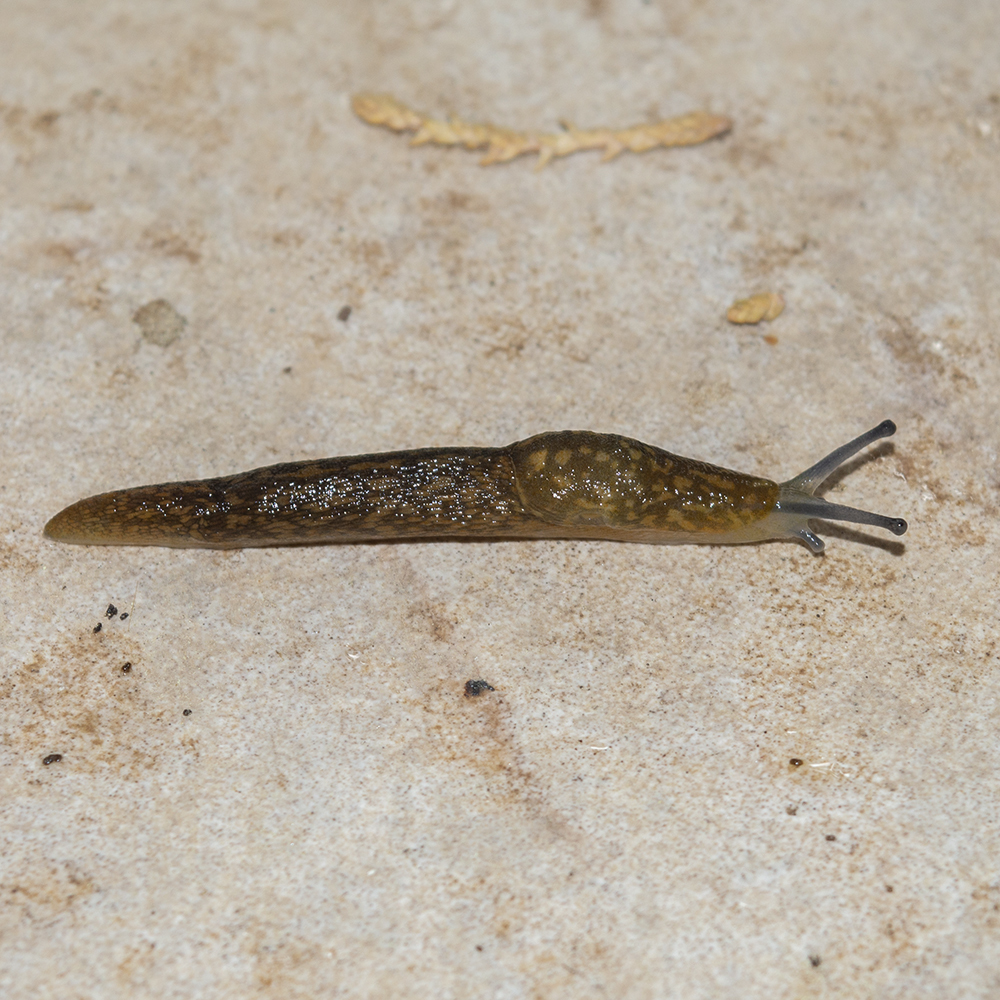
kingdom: Animalia
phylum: Mollusca
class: Gastropoda
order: Stylommatophora
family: Limacidae
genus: Limacus
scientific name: Limacus flavus
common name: Yellow gardenslug
